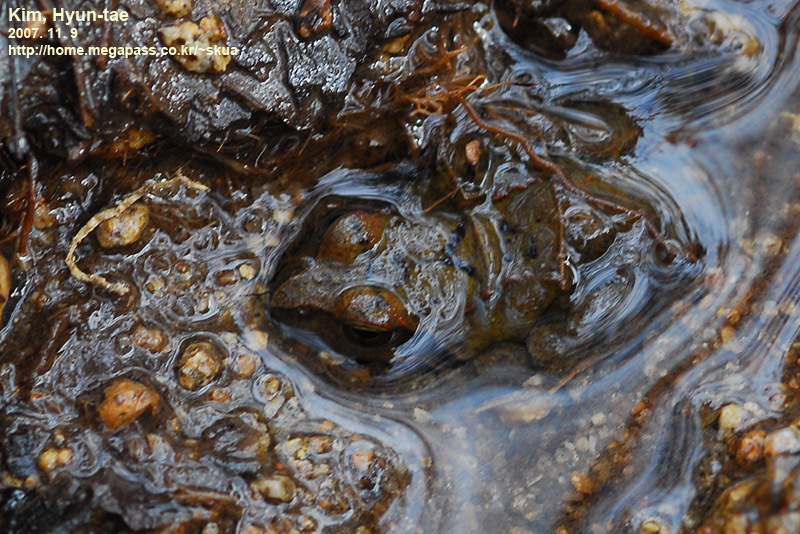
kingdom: Animalia
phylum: Chordata
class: Amphibia
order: Anura
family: Ranidae
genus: Rana
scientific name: Rana uenoi
